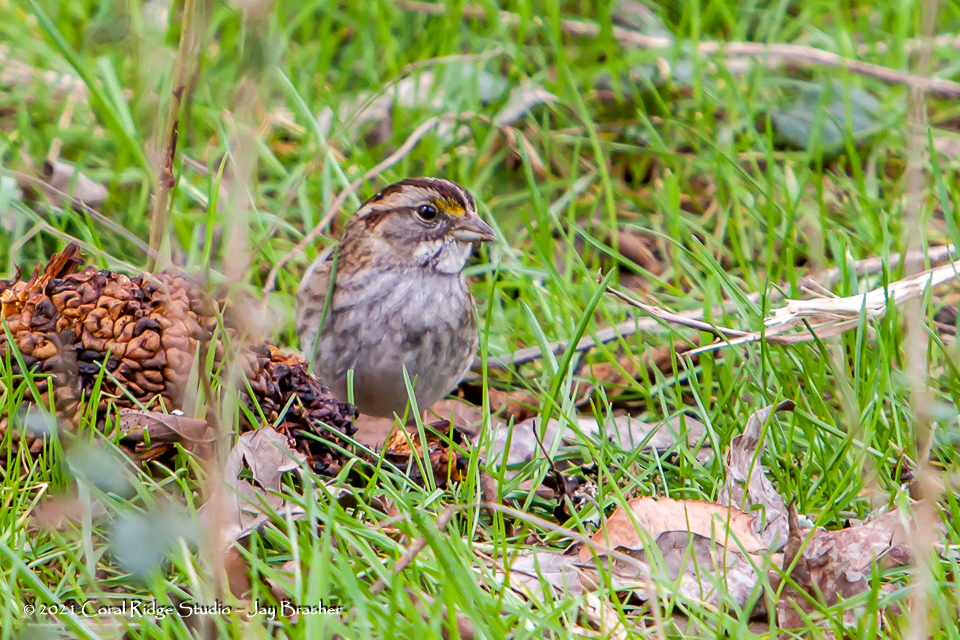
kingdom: Animalia
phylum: Chordata
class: Aves
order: Passeriformes
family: Passerellidae
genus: Zonotrichia
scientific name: Zonotrichia albicollis
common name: White-throated sparrow
